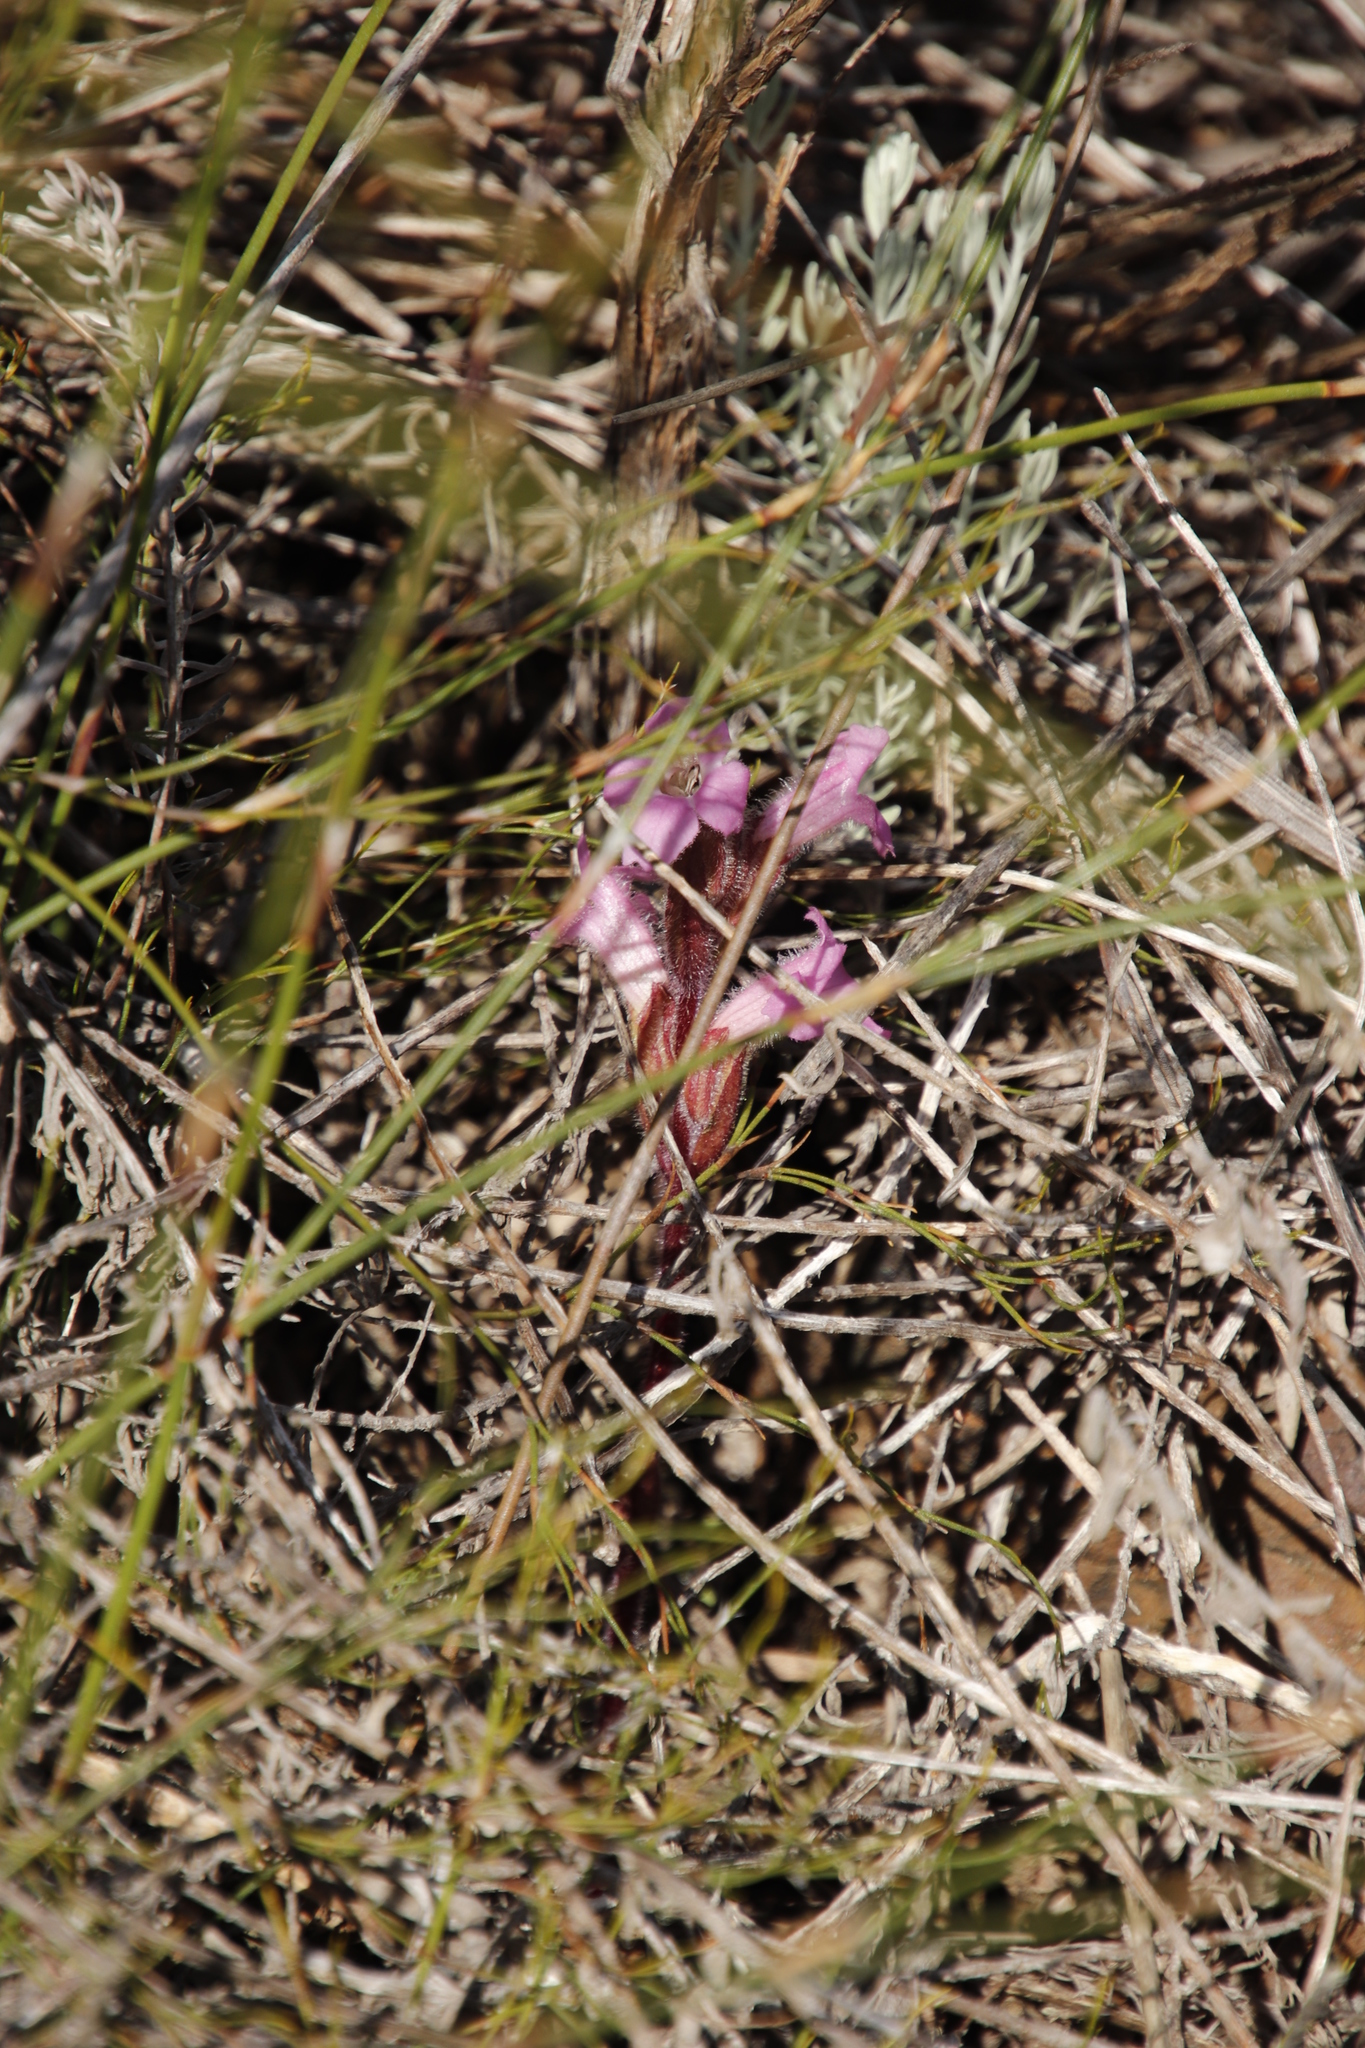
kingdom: Plantae
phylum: Tracheophyta
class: Magnoliopsida
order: Lamiales
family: Orobanchaceae
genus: Harveya
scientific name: Harveya pauciflora
